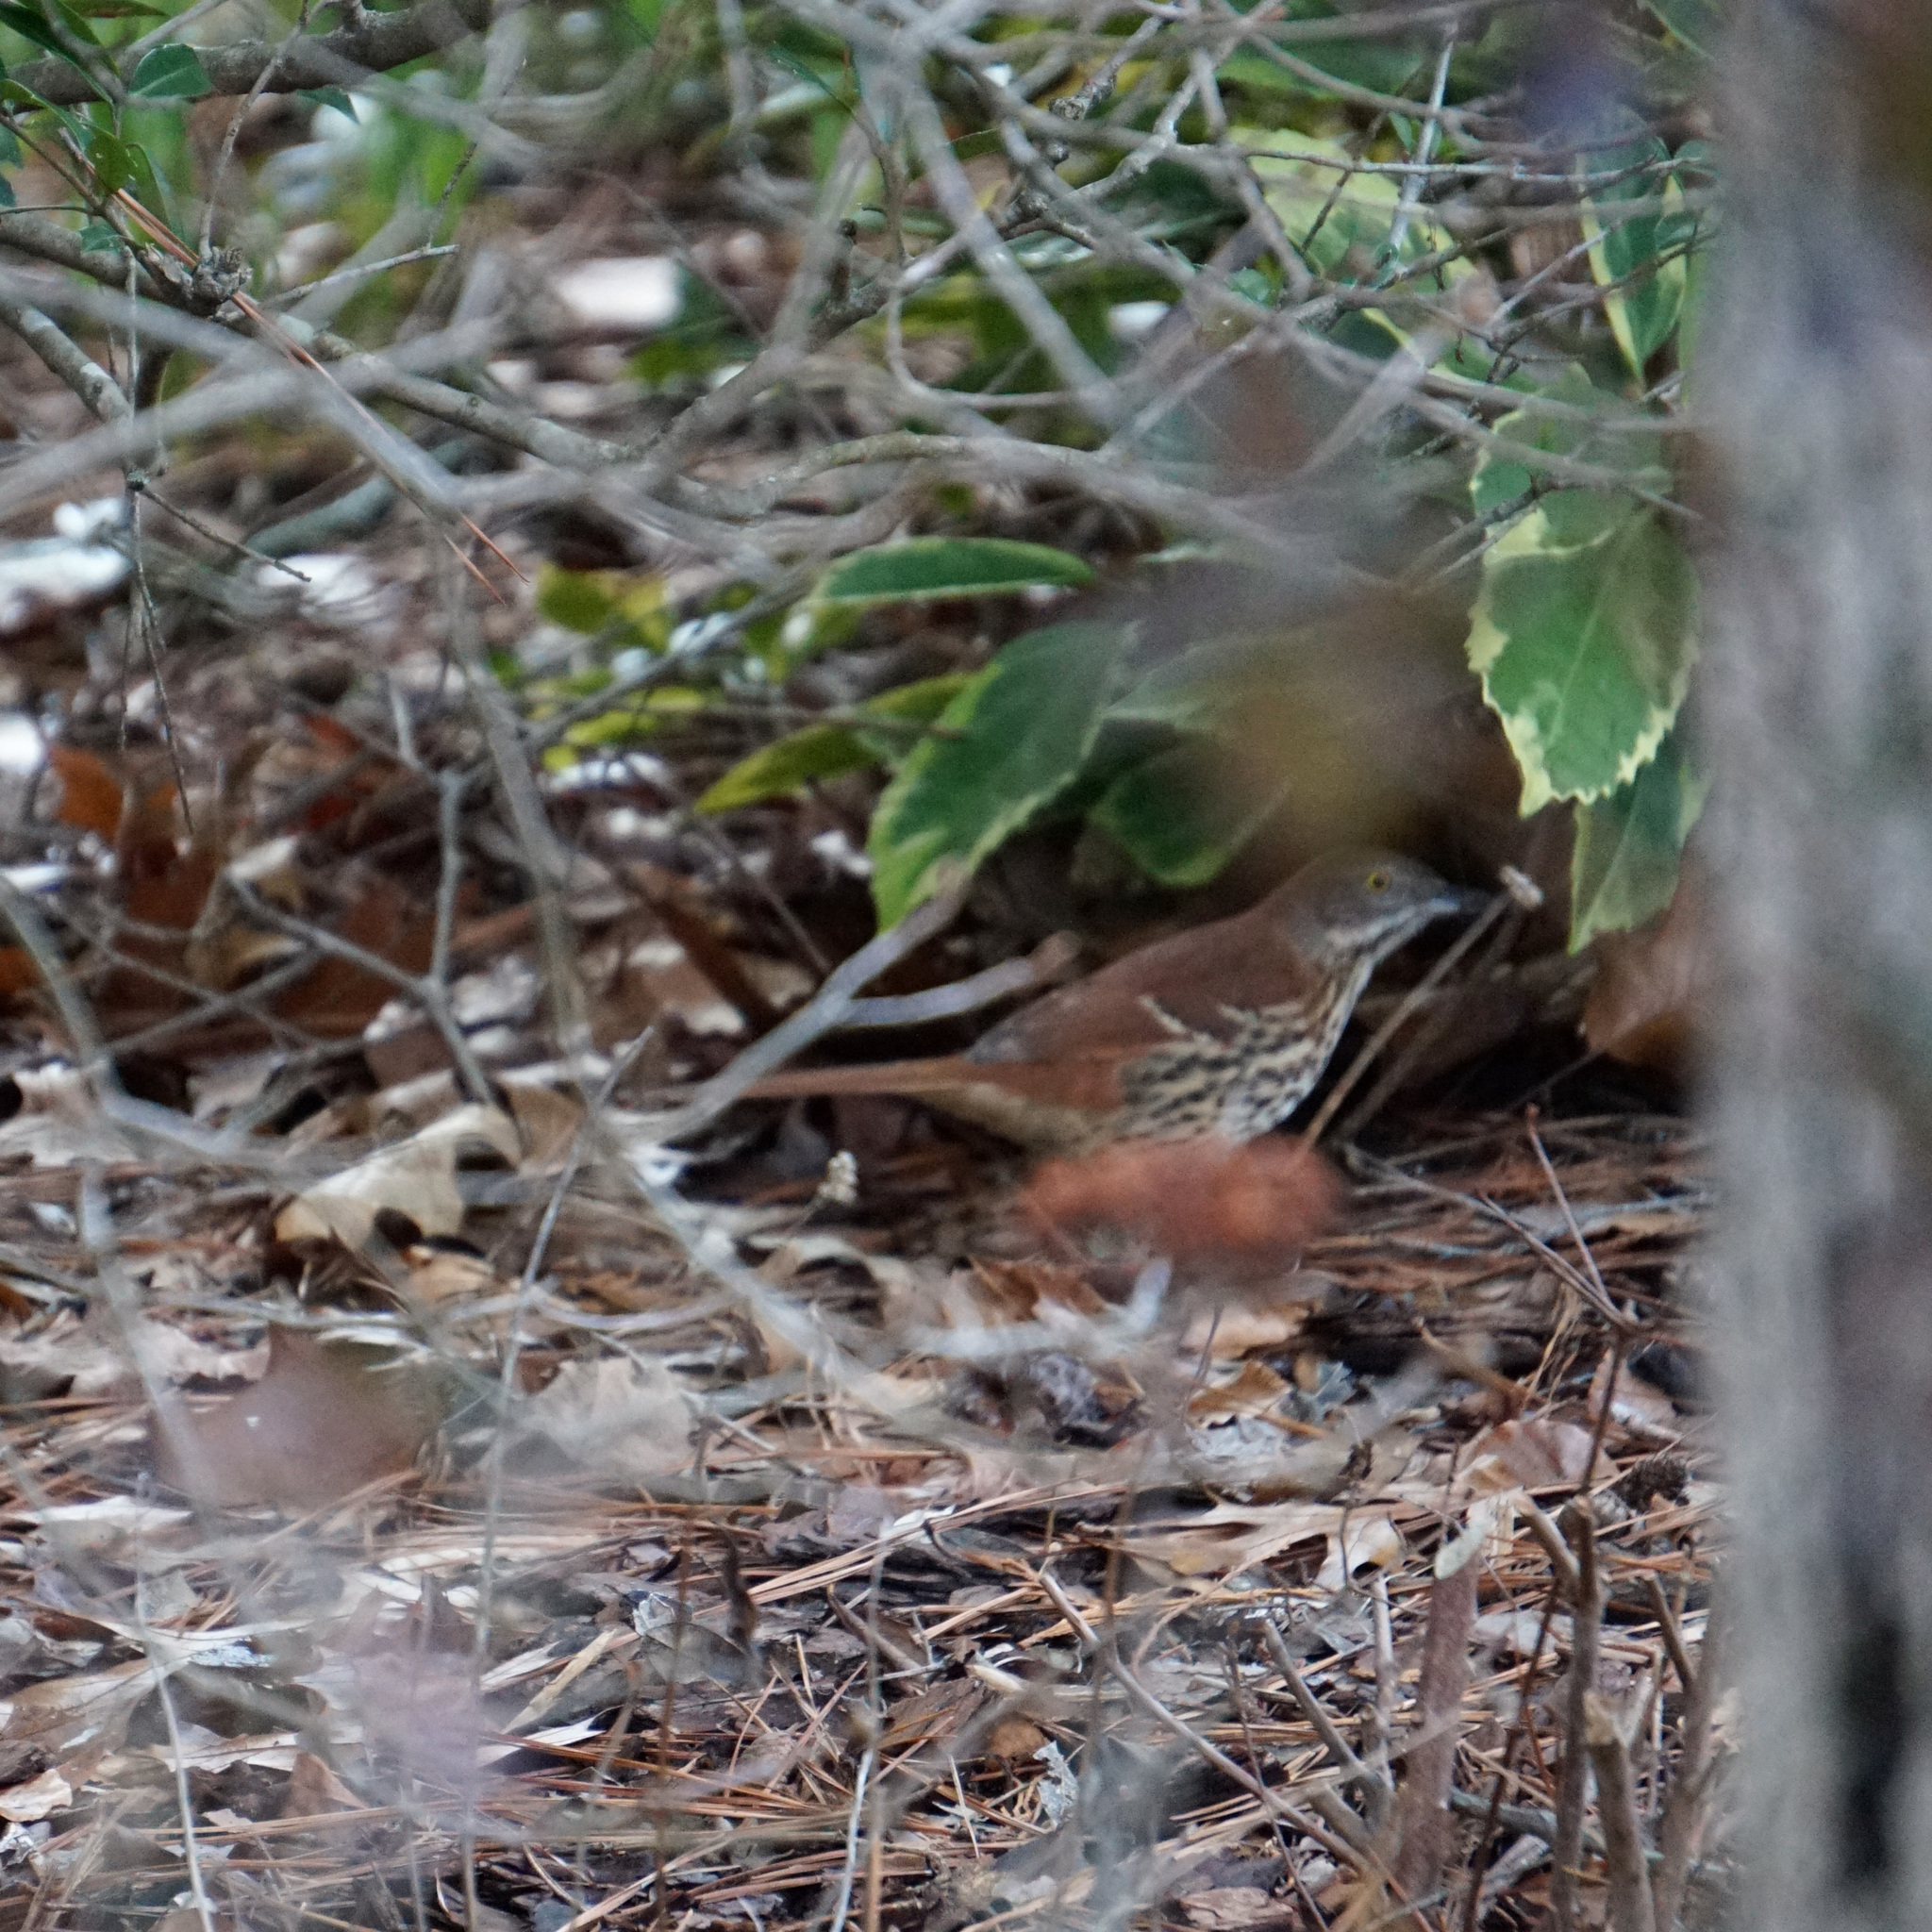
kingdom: Animalia
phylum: Chordata
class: Aves
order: Passeriformes
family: Mimidae
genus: Toxostoma
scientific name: Toxostoma rufum
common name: Brown thrasher
